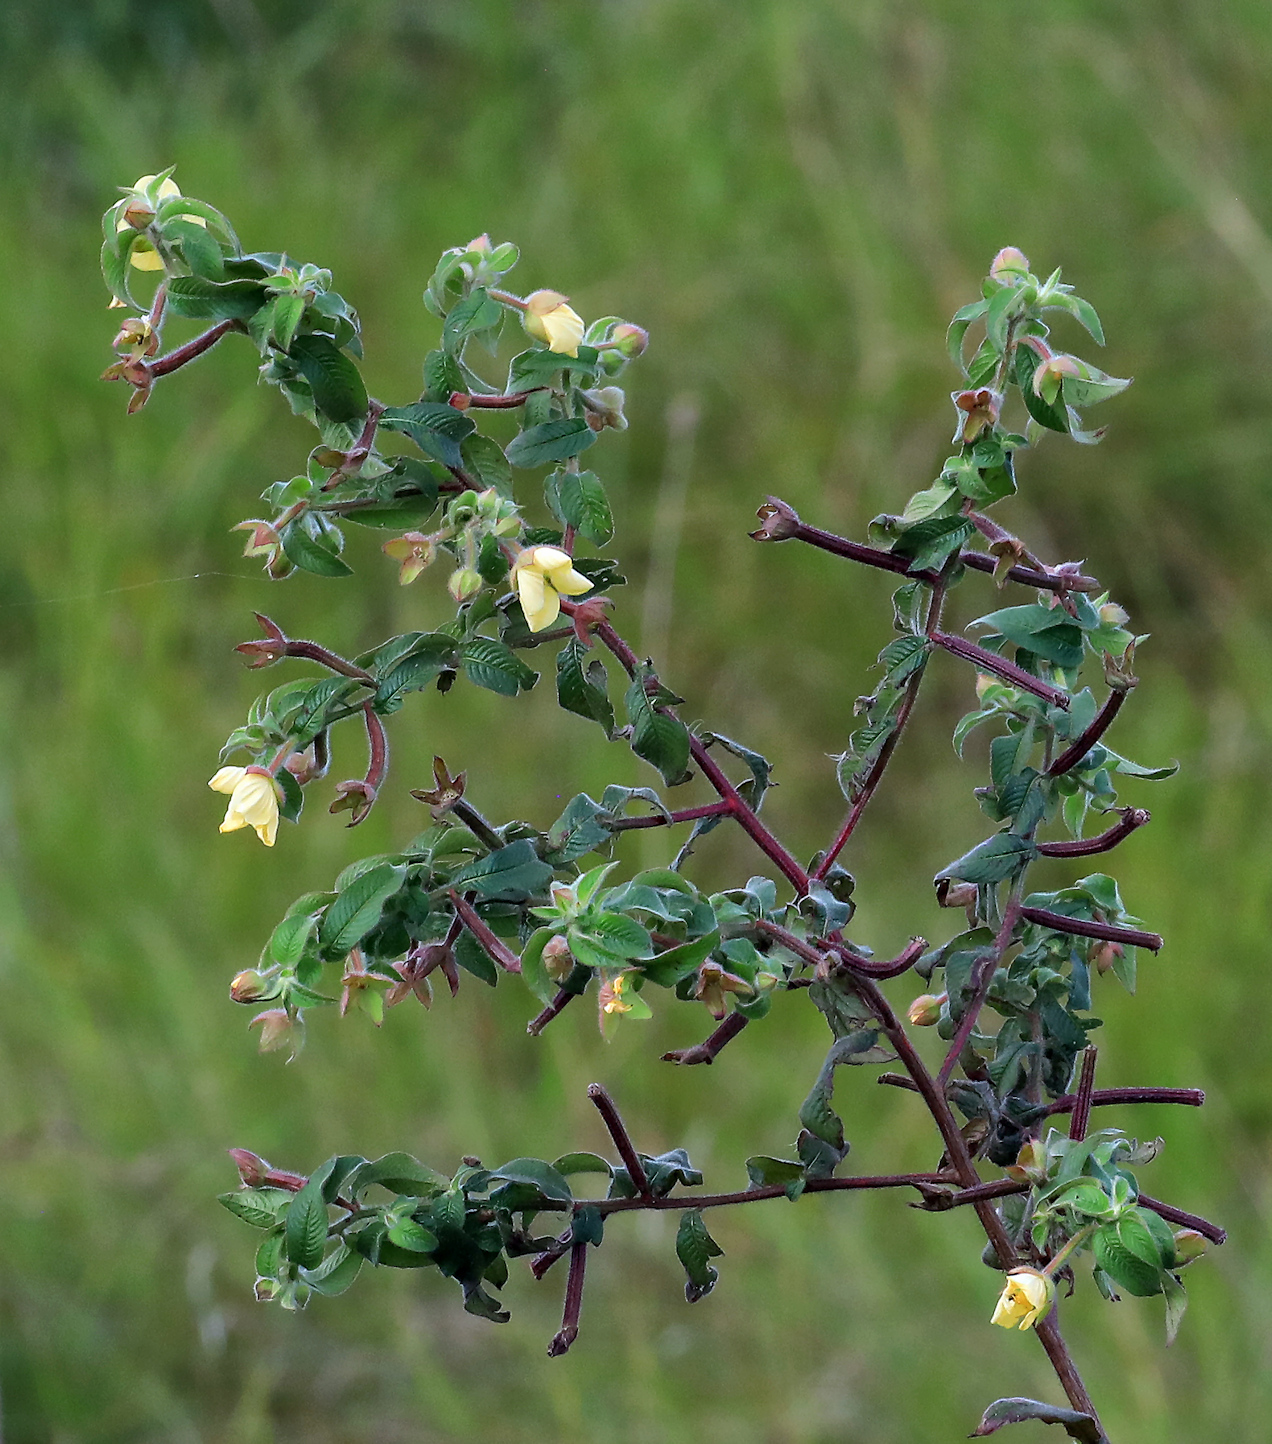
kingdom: Plantae
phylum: Tracheophyta
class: Magnoliopsida
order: Myrtales
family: Onagraceae
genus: Ludwigia
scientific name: Ludwigia octovalvis
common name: Water-primrose
